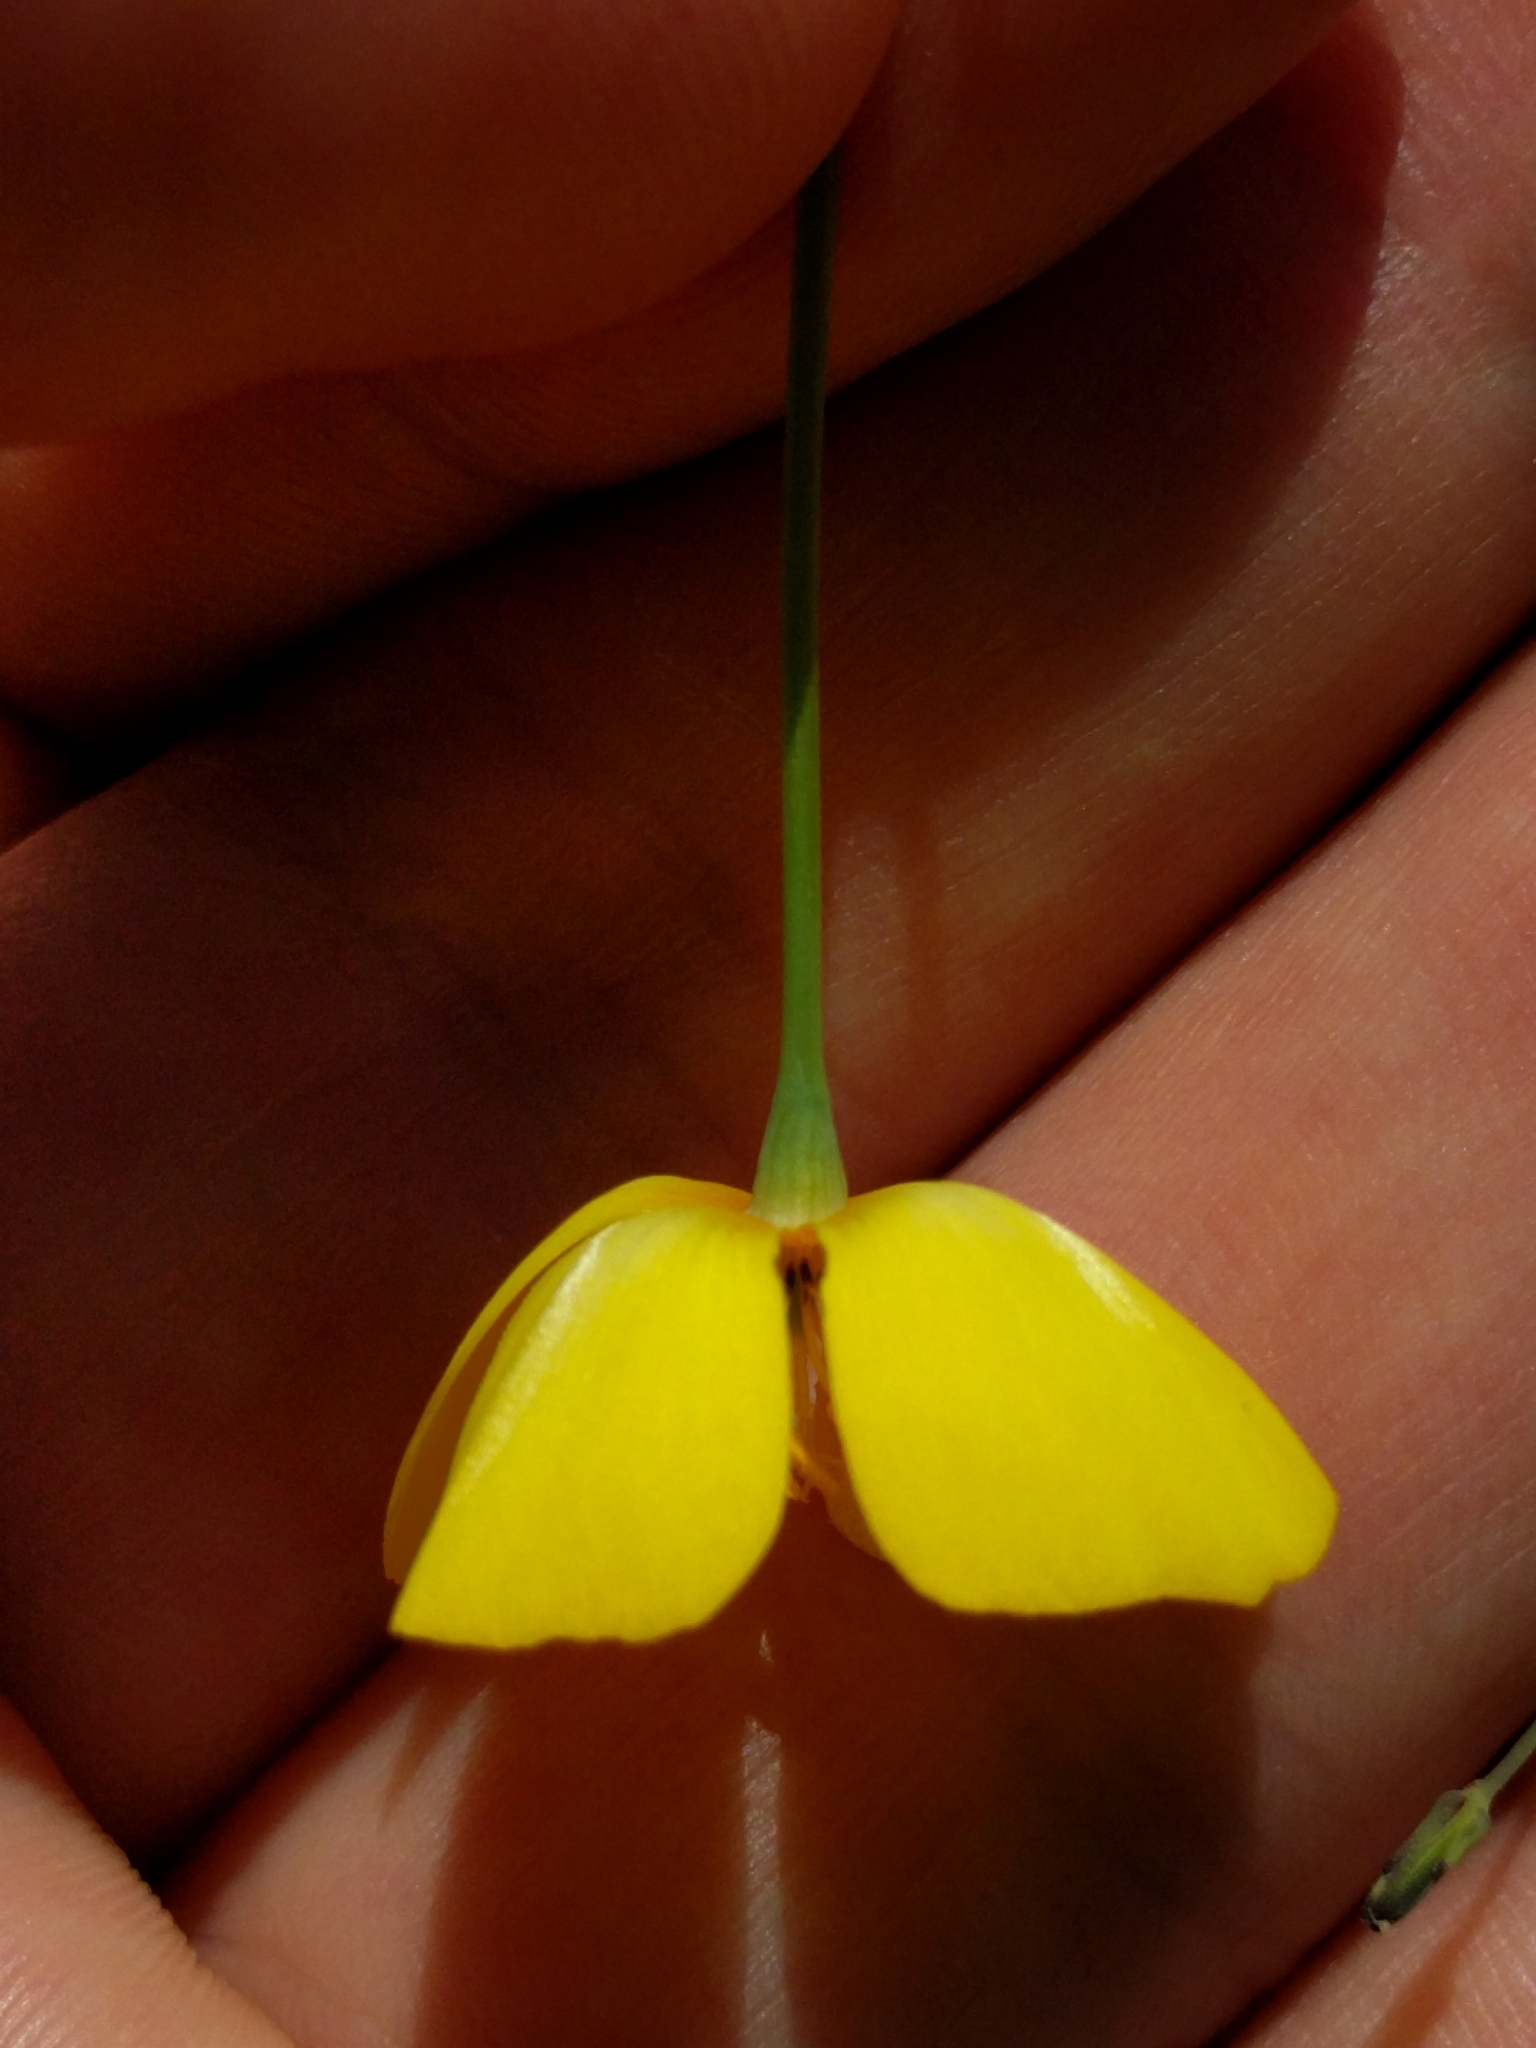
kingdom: Plantae
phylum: Tracheophyta
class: Magnoliopsida
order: Ranunculales
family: Papaveraceae
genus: Eschscholzia
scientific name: Eschscholzia lobbii
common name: Frying-pans
